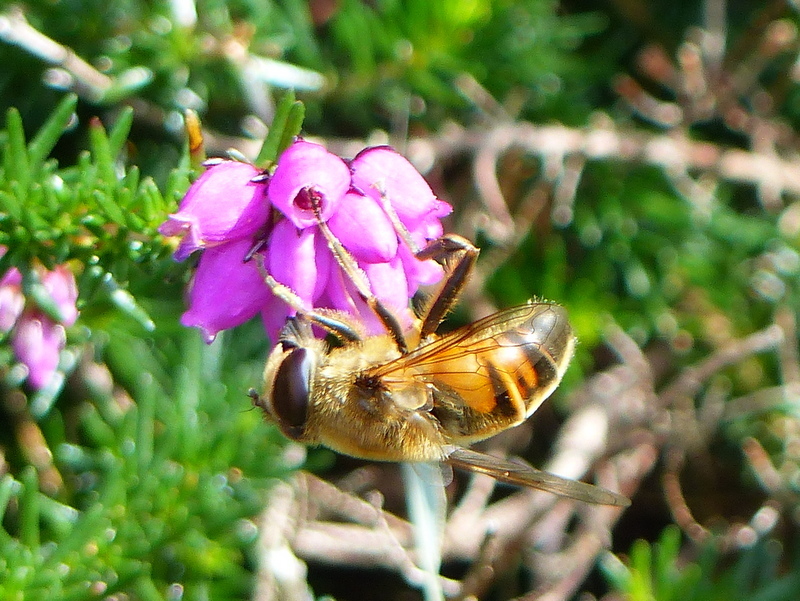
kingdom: Animalia
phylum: Arthropoda
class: Insecta
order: Diptera
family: Syrphidae
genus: Eristalis
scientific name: Eristalis tenax
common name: Drone fly
